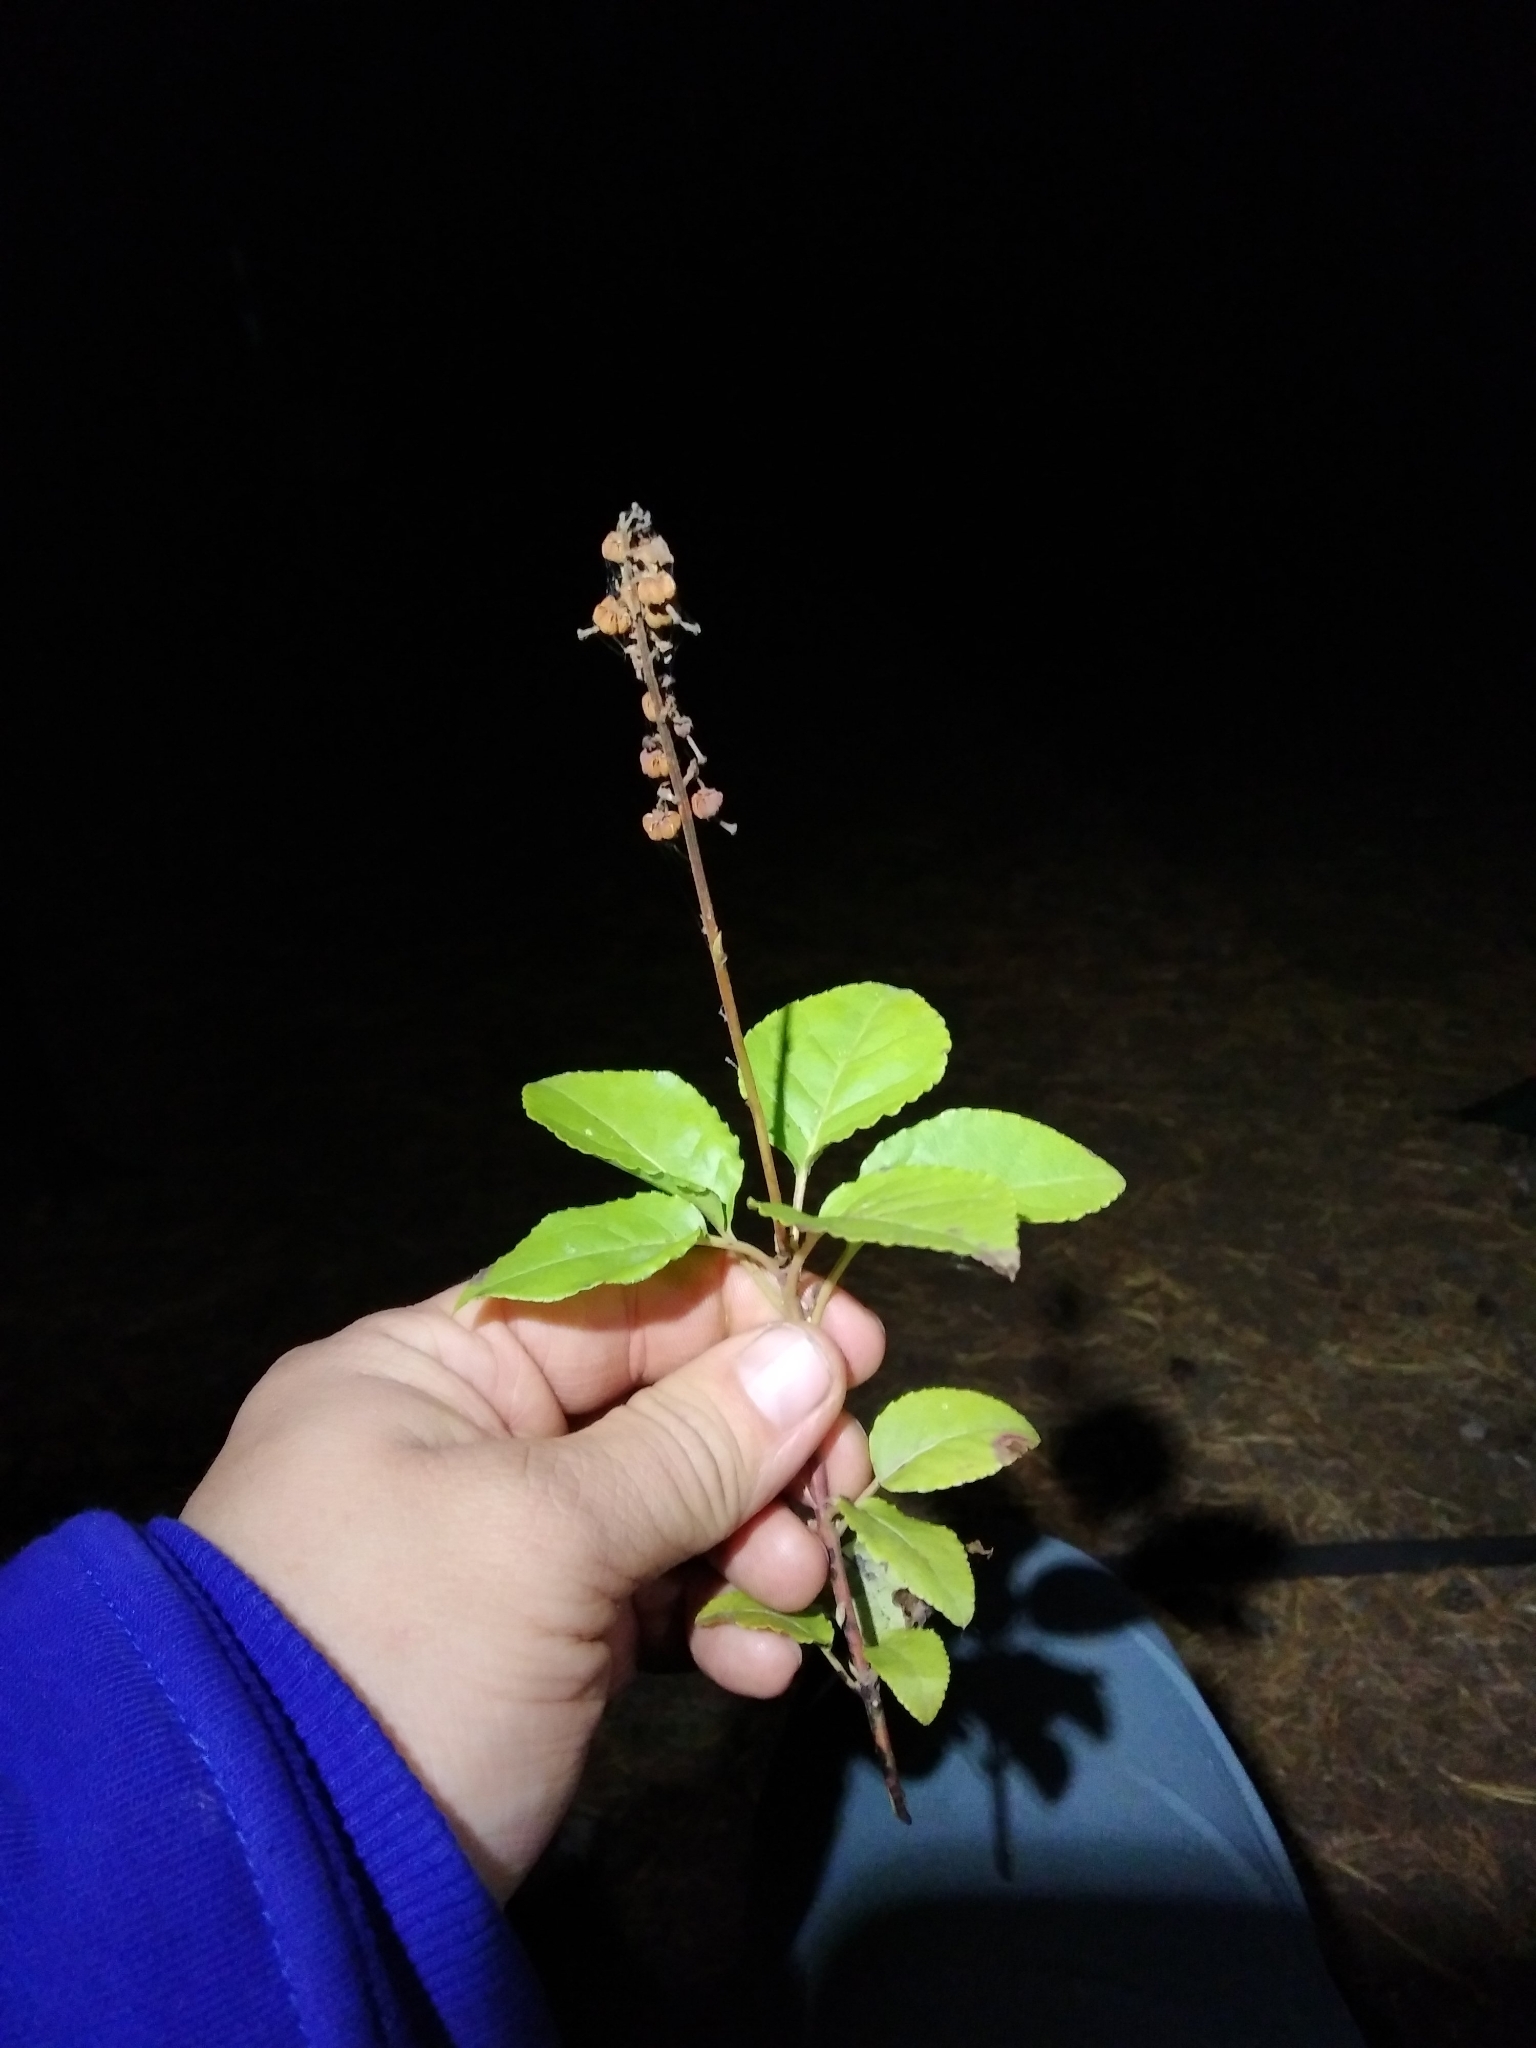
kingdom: Plantae
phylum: Tracheophyta
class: Magnoliopsida
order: Ericales
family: Ericaceae
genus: Orthilia
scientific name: Orthilia secunda
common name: One-sided orthilia
